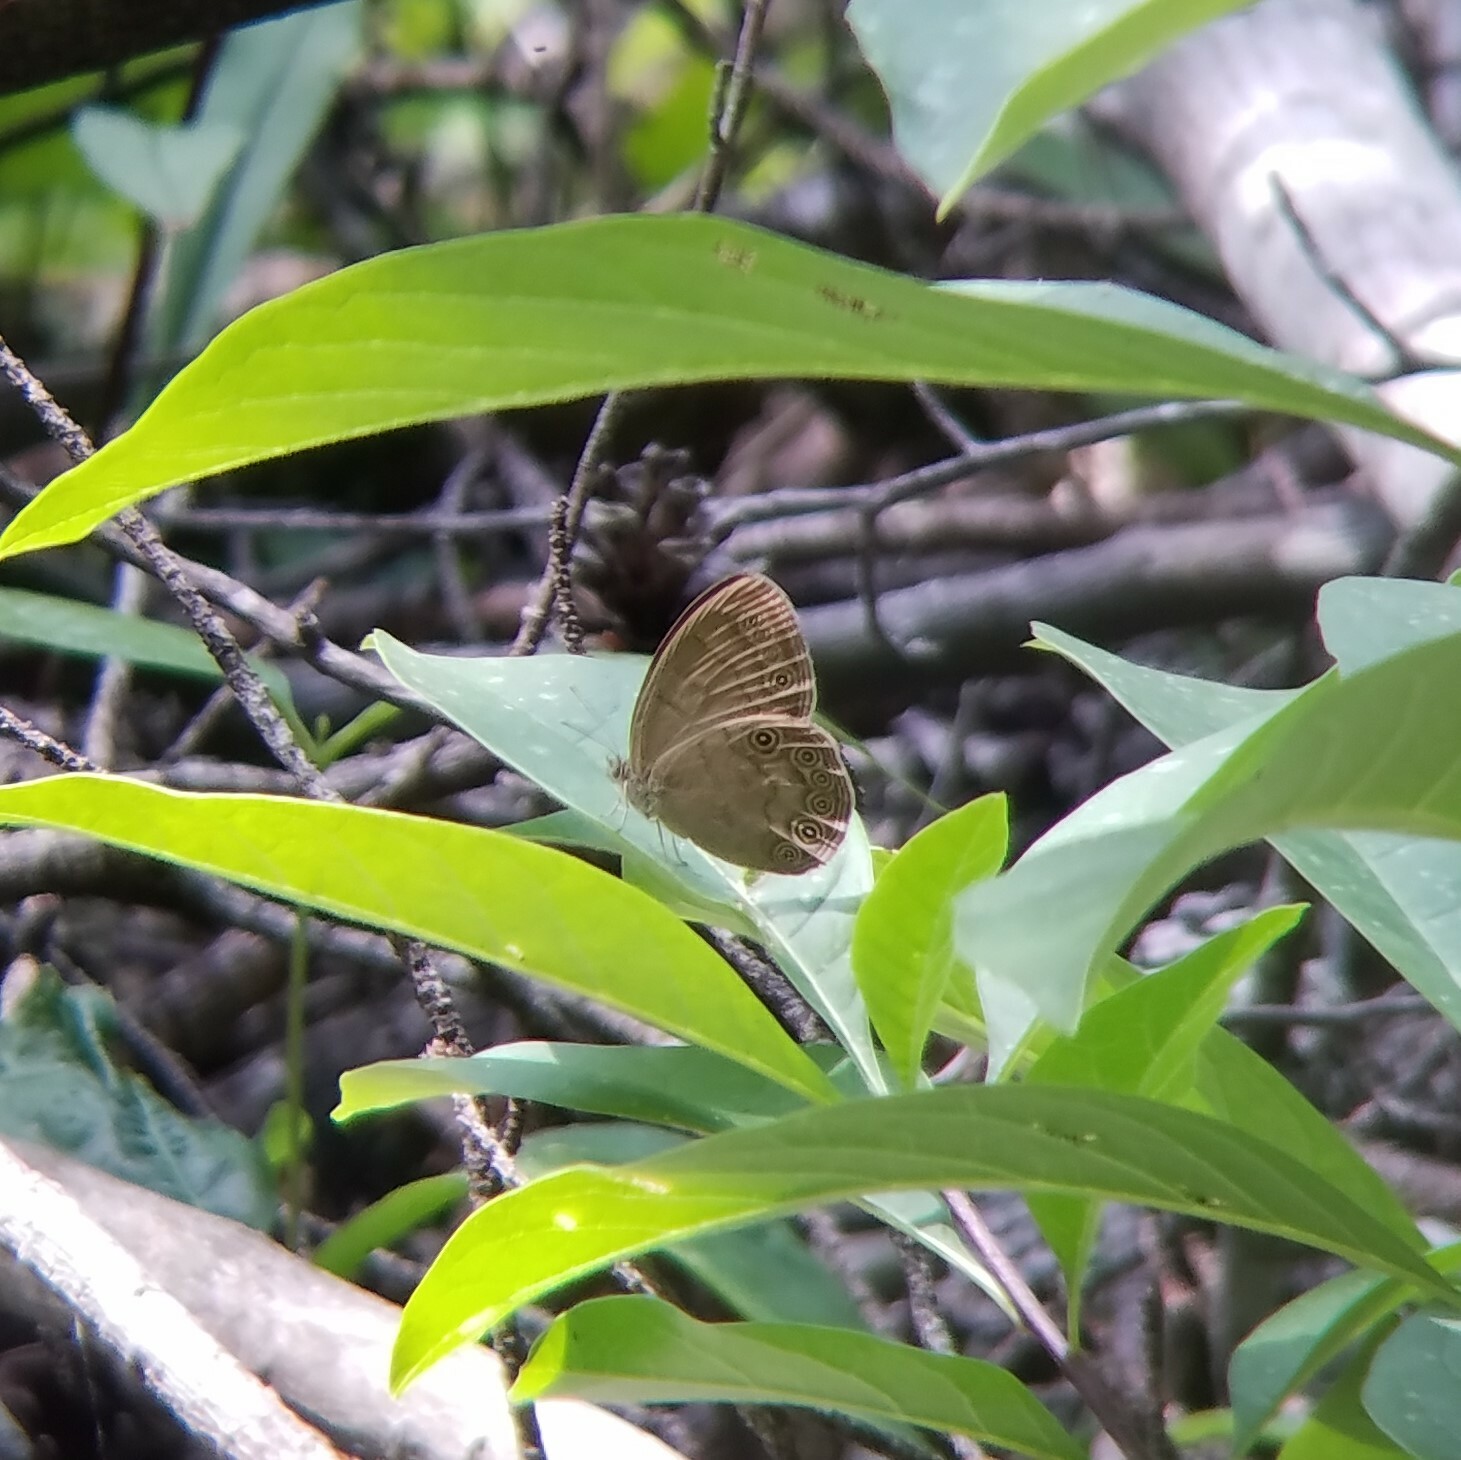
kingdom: Animalia
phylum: Arthropoda
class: Insecta
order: Lepidoptera
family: Nymphalidae
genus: Lethe
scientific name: Lethe eurydice
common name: Eyed brown
